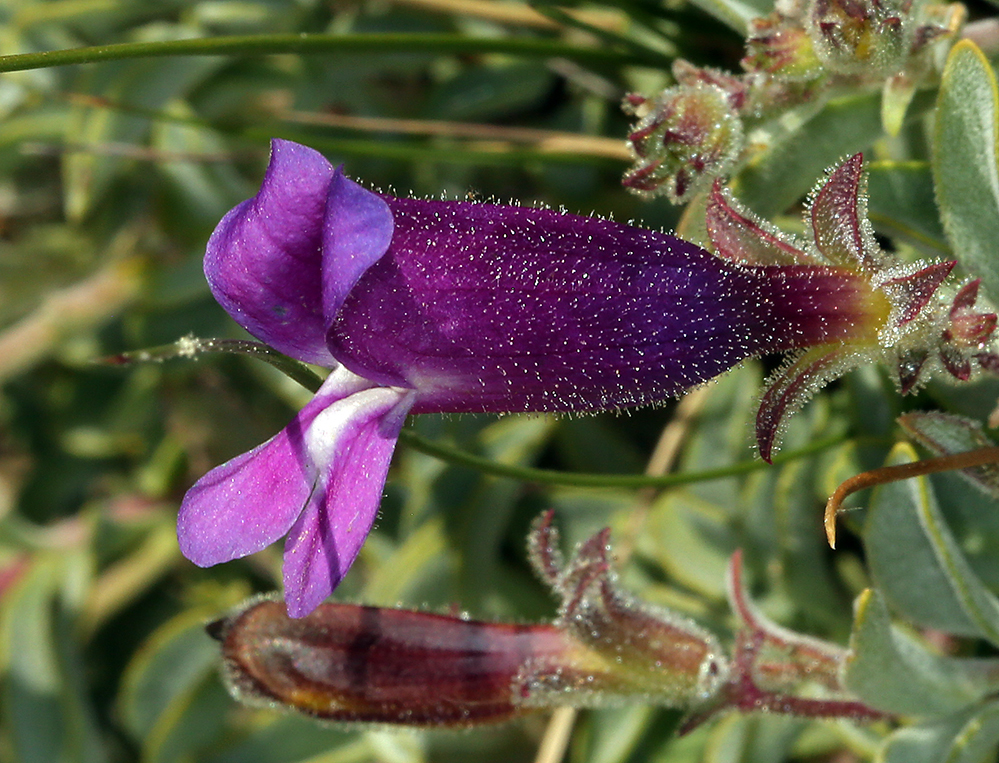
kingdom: Plantae
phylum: Tracheophyta
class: Magnoliopsida
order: Lamiales
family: Plantaginaceae
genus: Penstemon
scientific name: Penstemon purpusii
